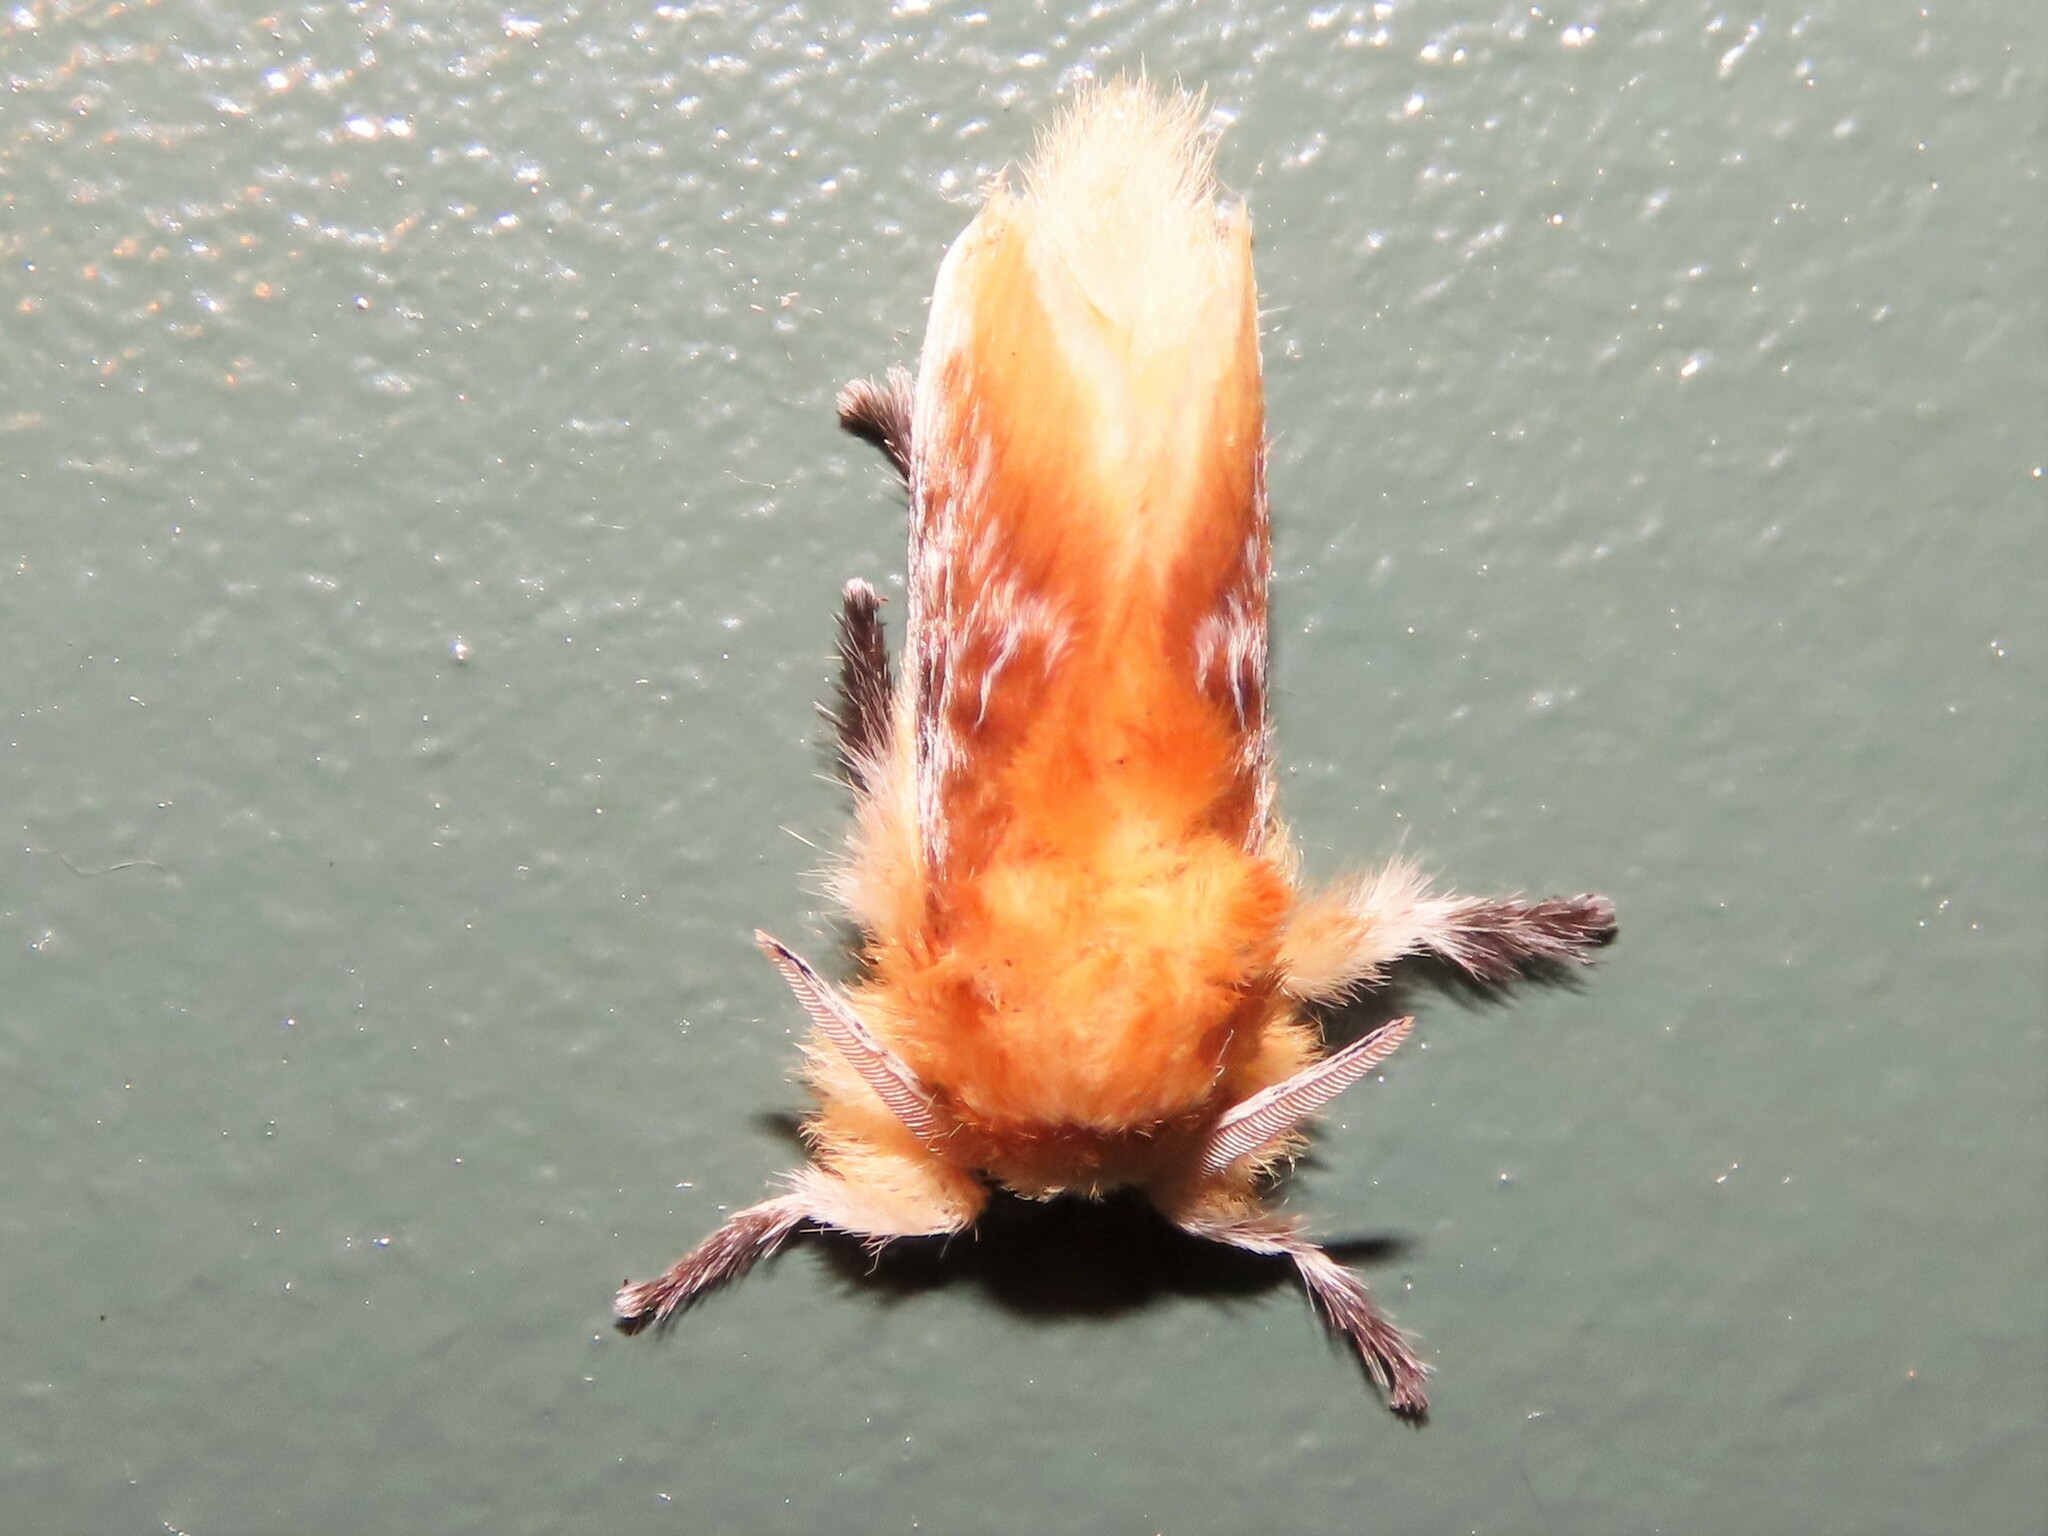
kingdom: Animalia
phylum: Arthropoda
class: Insecta
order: Lepidoptera
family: Megalopygidae
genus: Megalopyge
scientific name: Megalopyge opercularis
